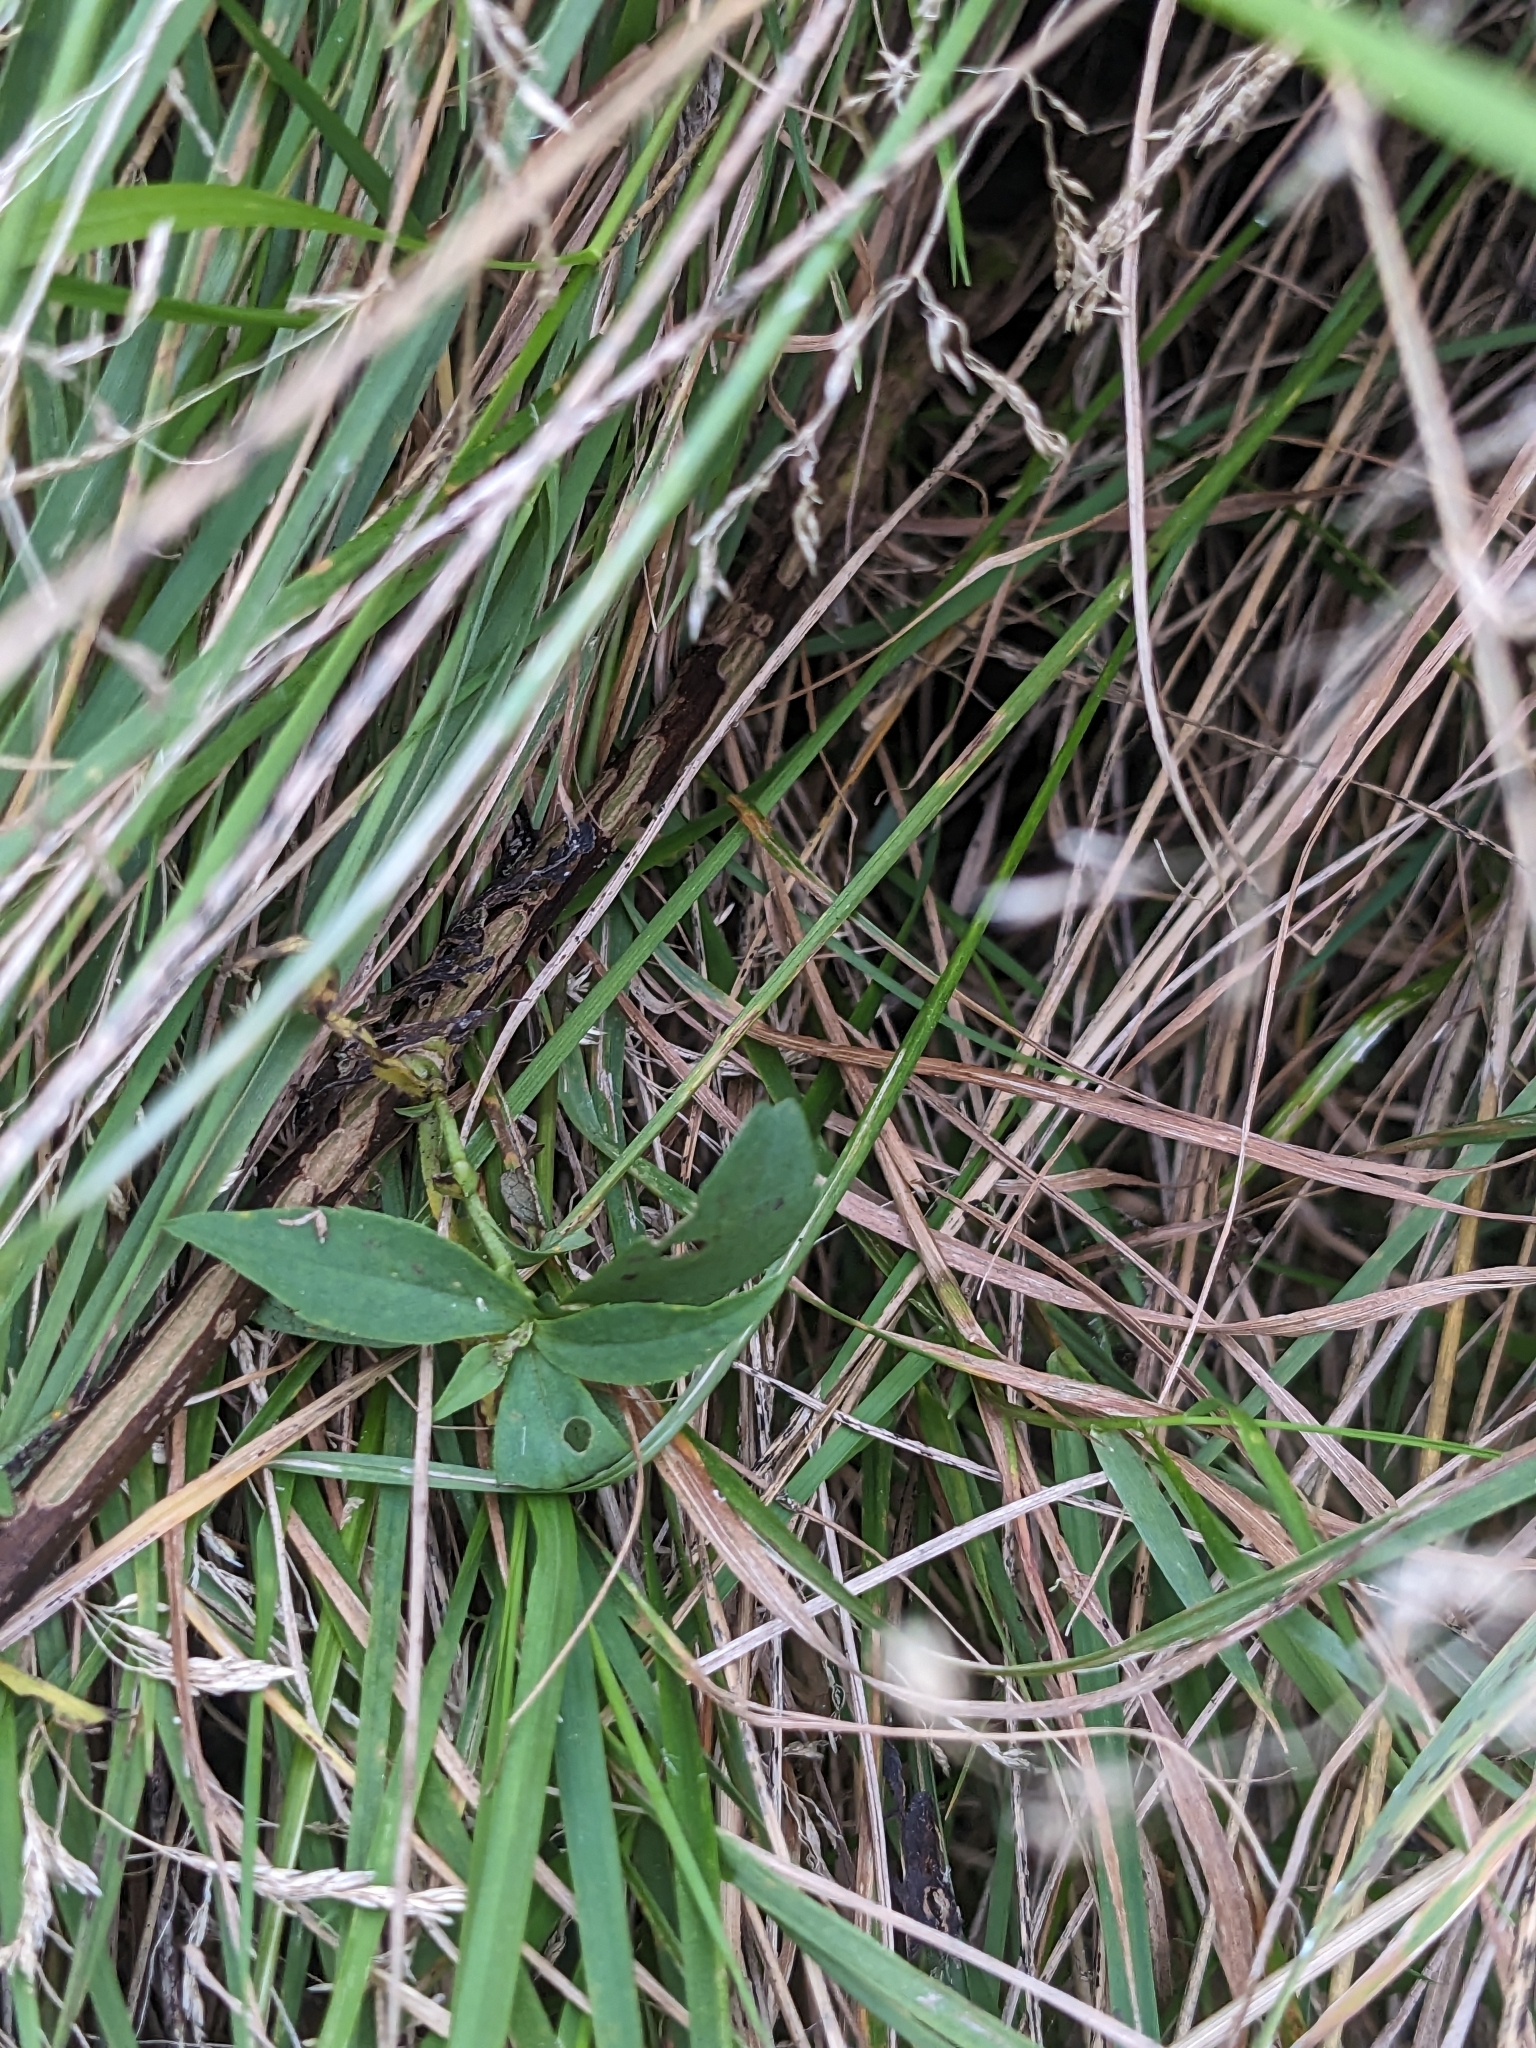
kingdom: Plantae
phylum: Tracheophyta
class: Magnoliopsida
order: Asterales
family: Asteraceae
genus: Symphyotrichum
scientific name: Symphyotrichum lanceolatum
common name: Panicled aster
